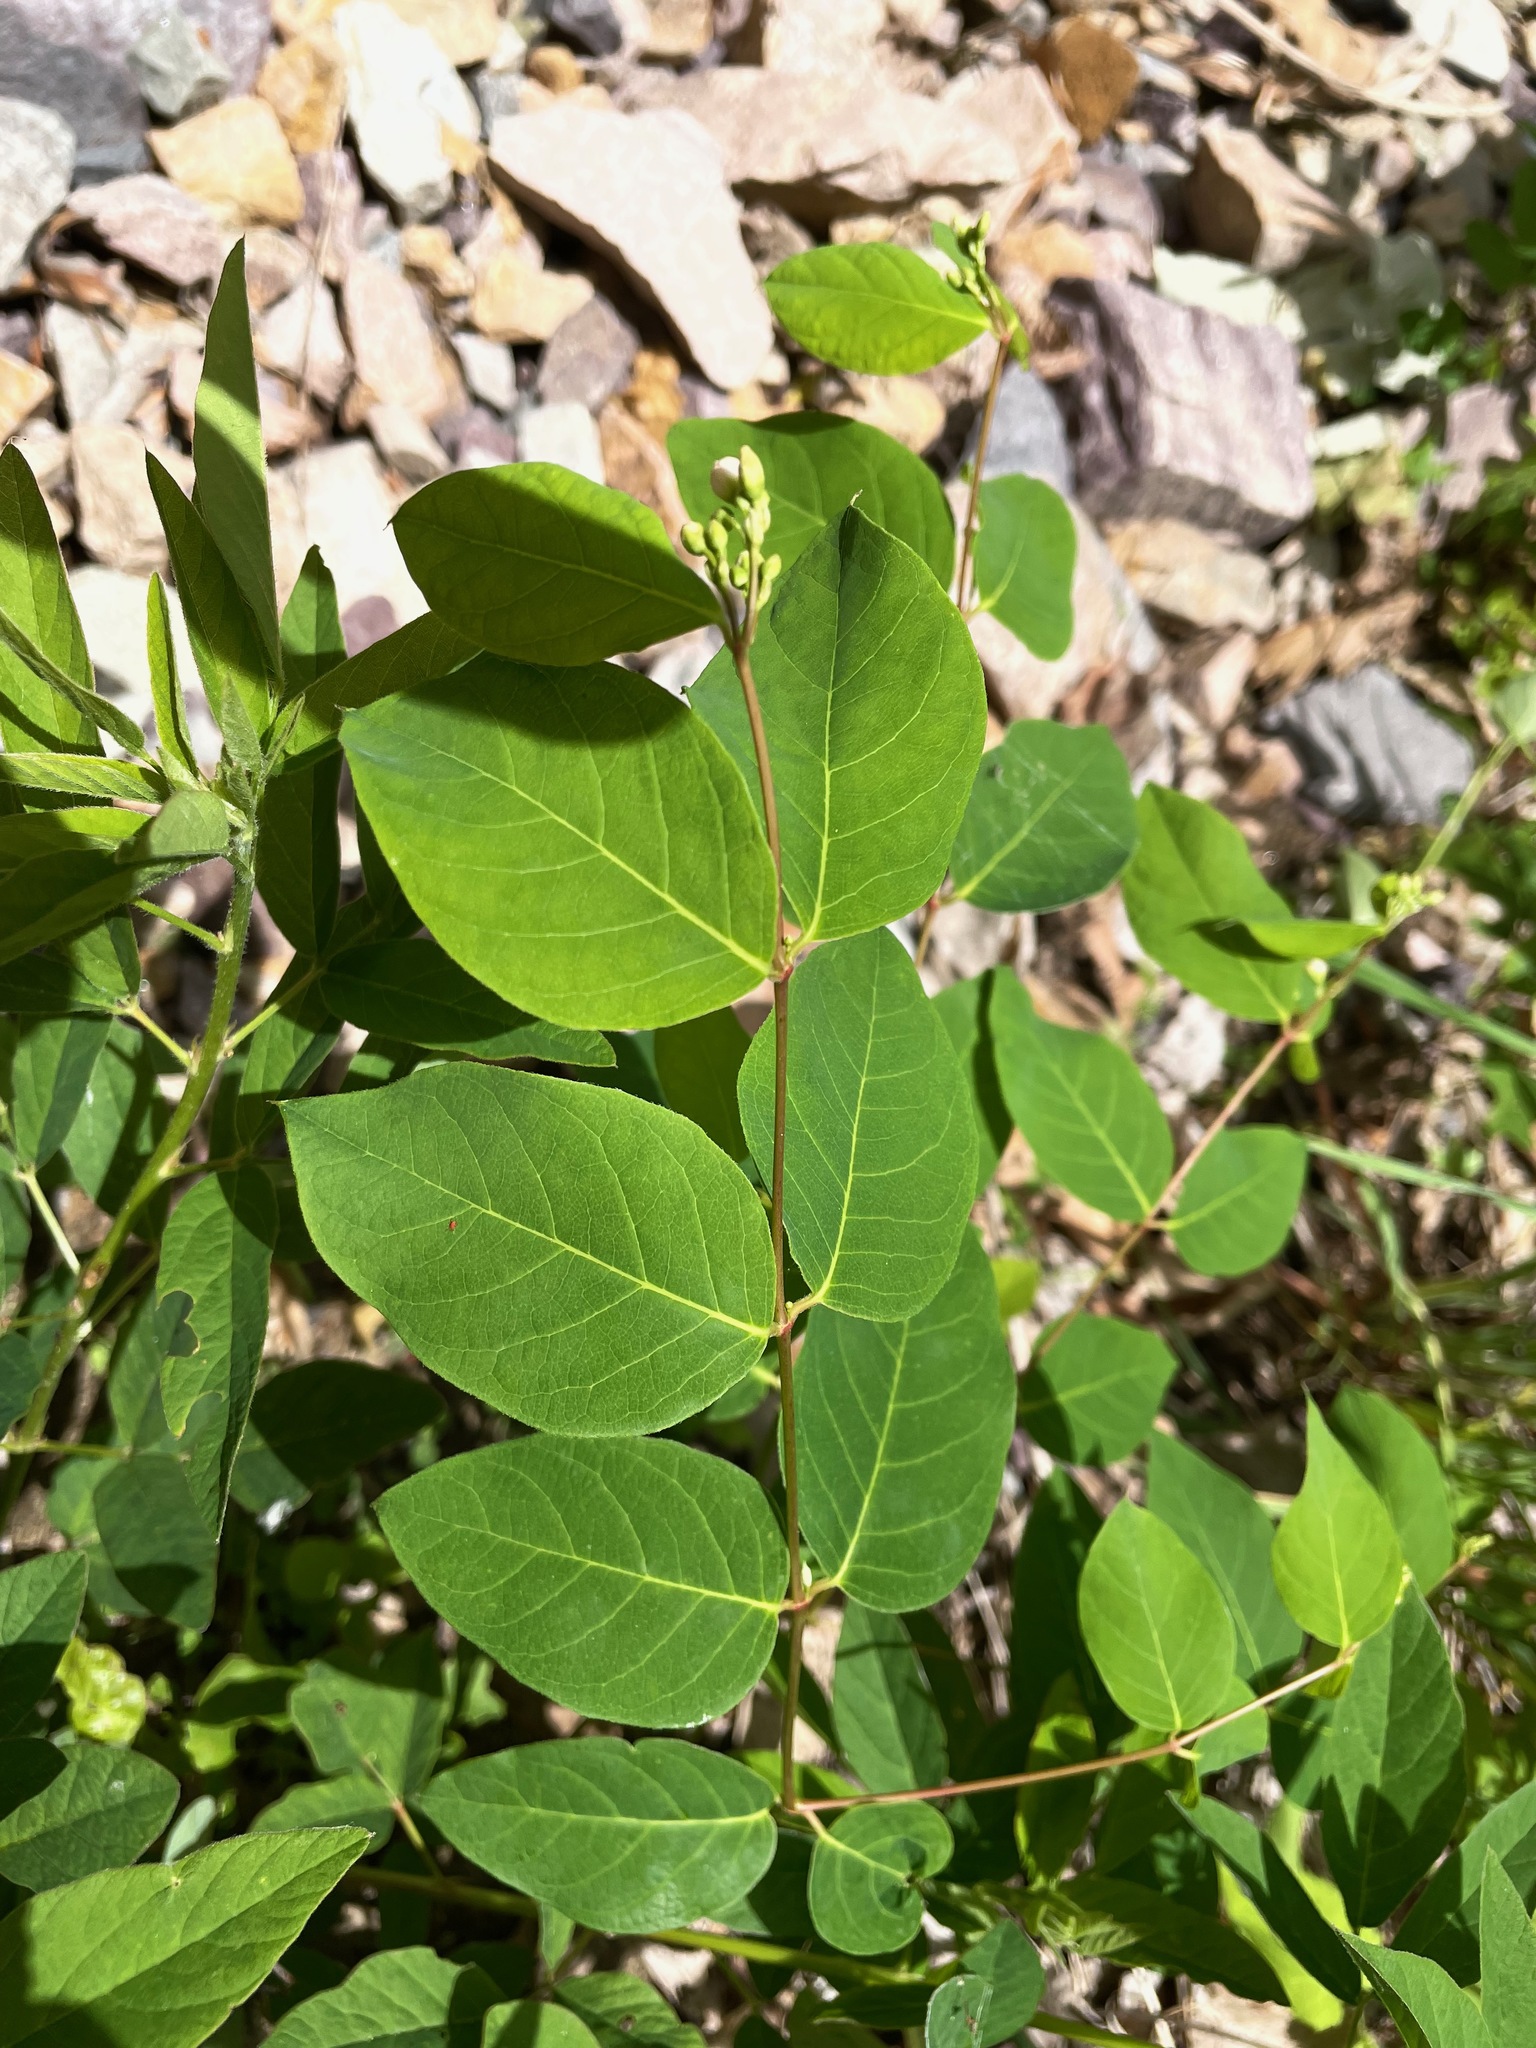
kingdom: Plantae
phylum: Tracheophyta
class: Magnoliopsida
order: Gentianales
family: Apocynaceae
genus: Apocynum
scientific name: Apocynum androsaemifolium
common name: Spreading dogbane
